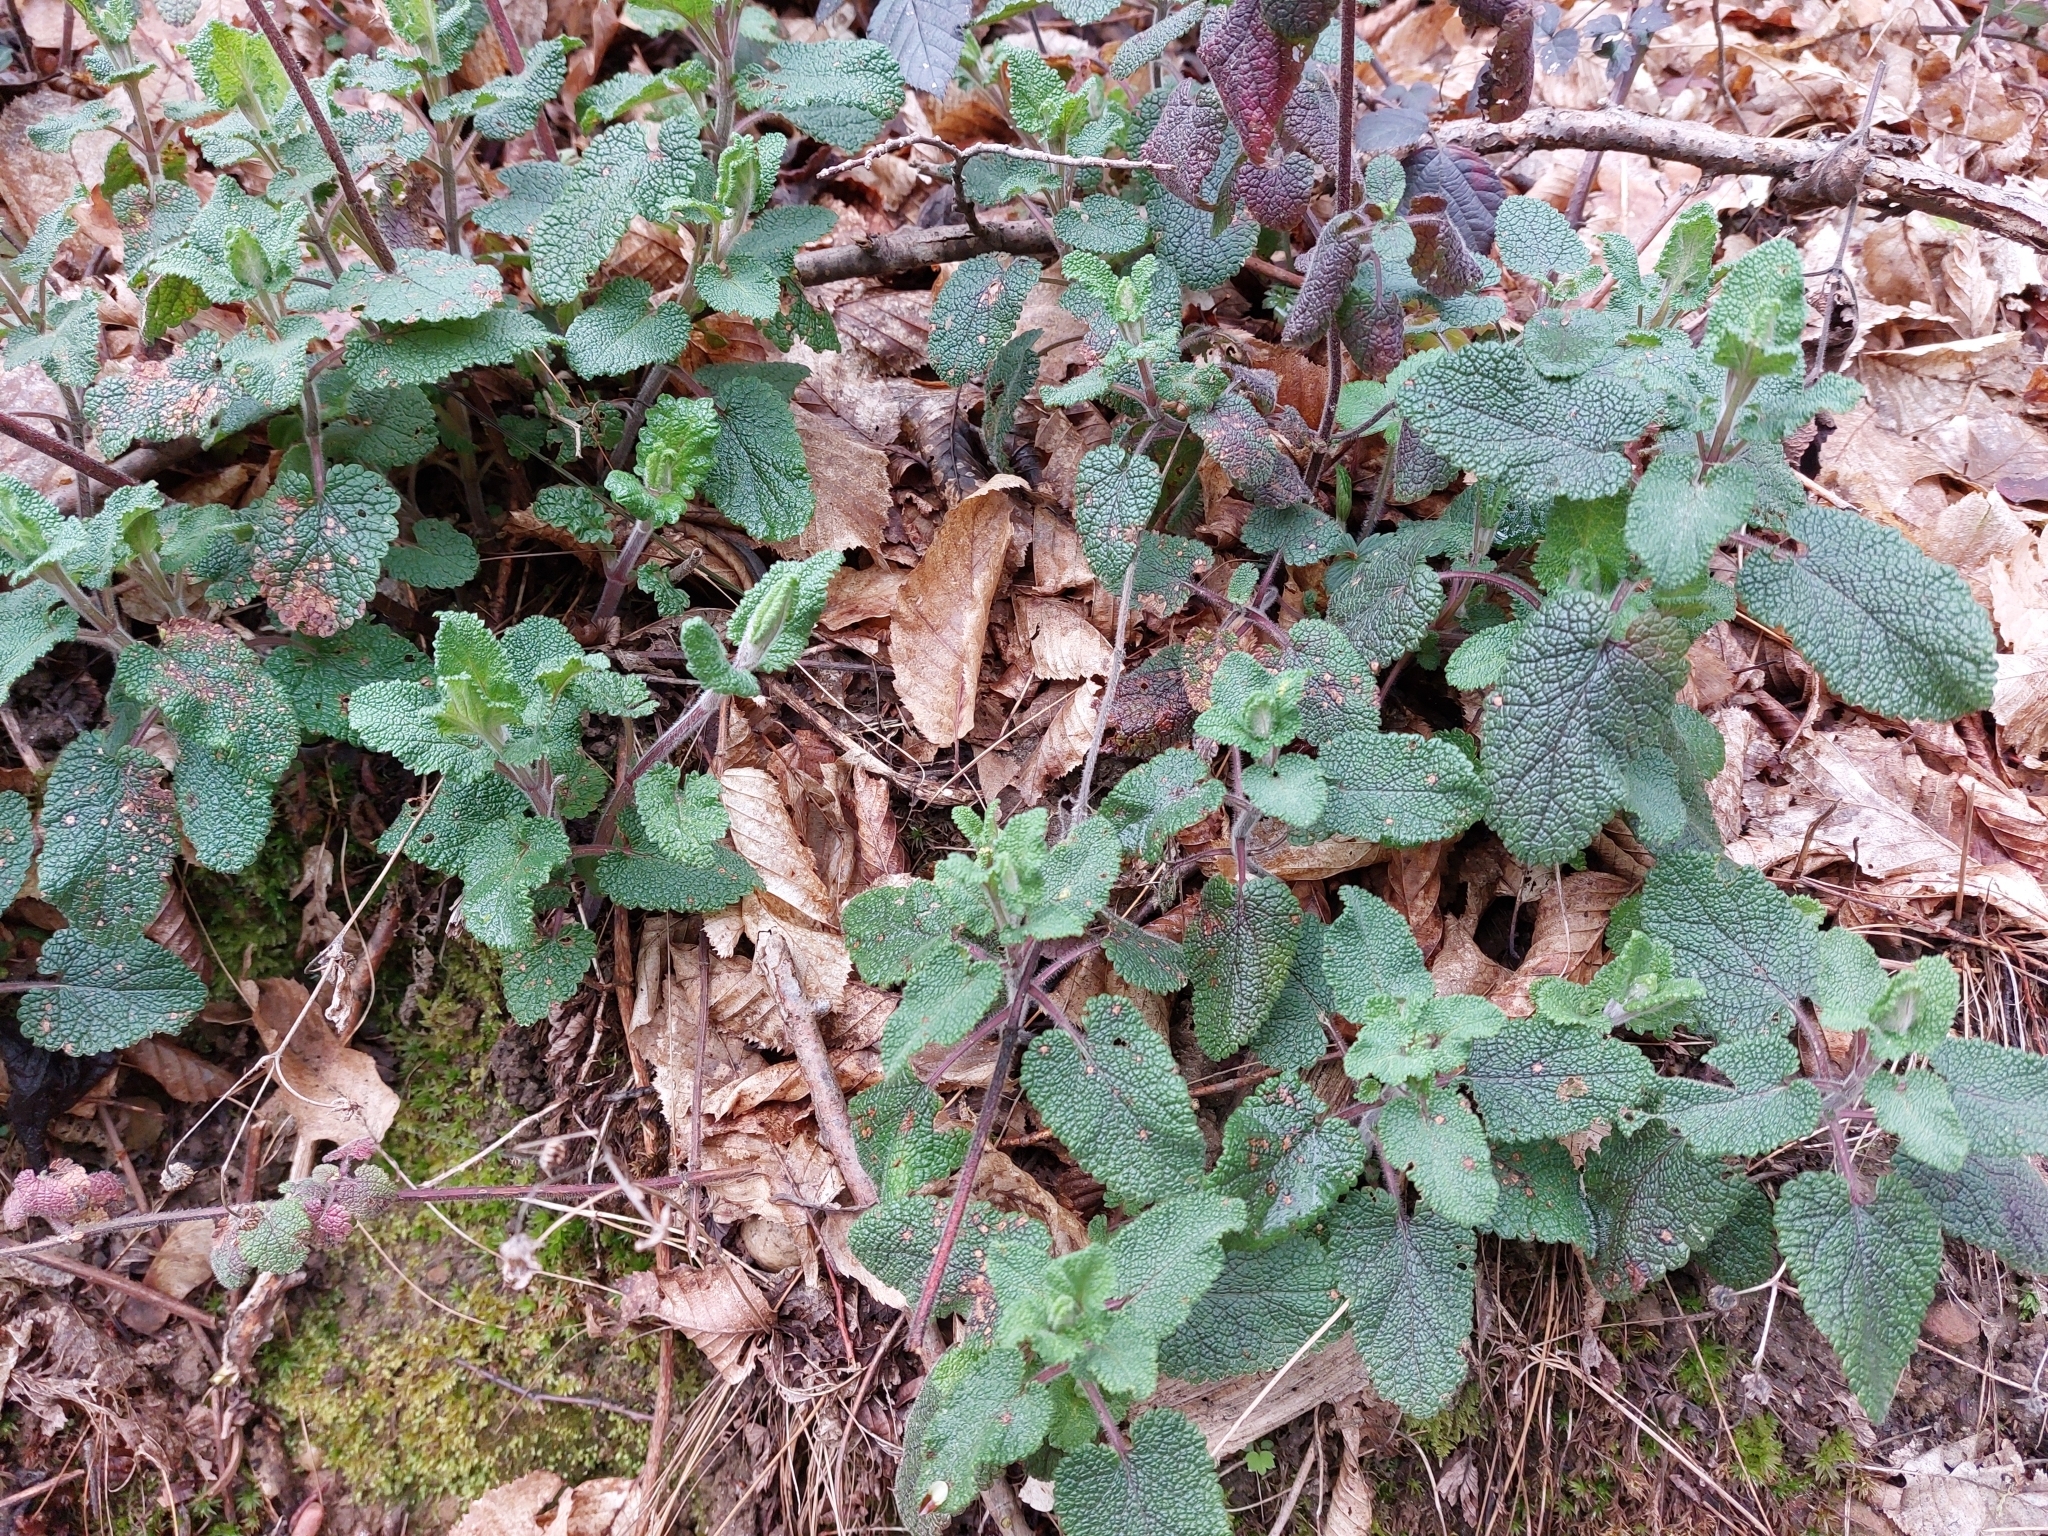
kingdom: Plantae
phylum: Tracheophyta
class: Magnoliopsida
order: Lamiales
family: Lamiaceae
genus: Teucrium
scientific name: Teucrium scorodonia
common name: Woodland germander
